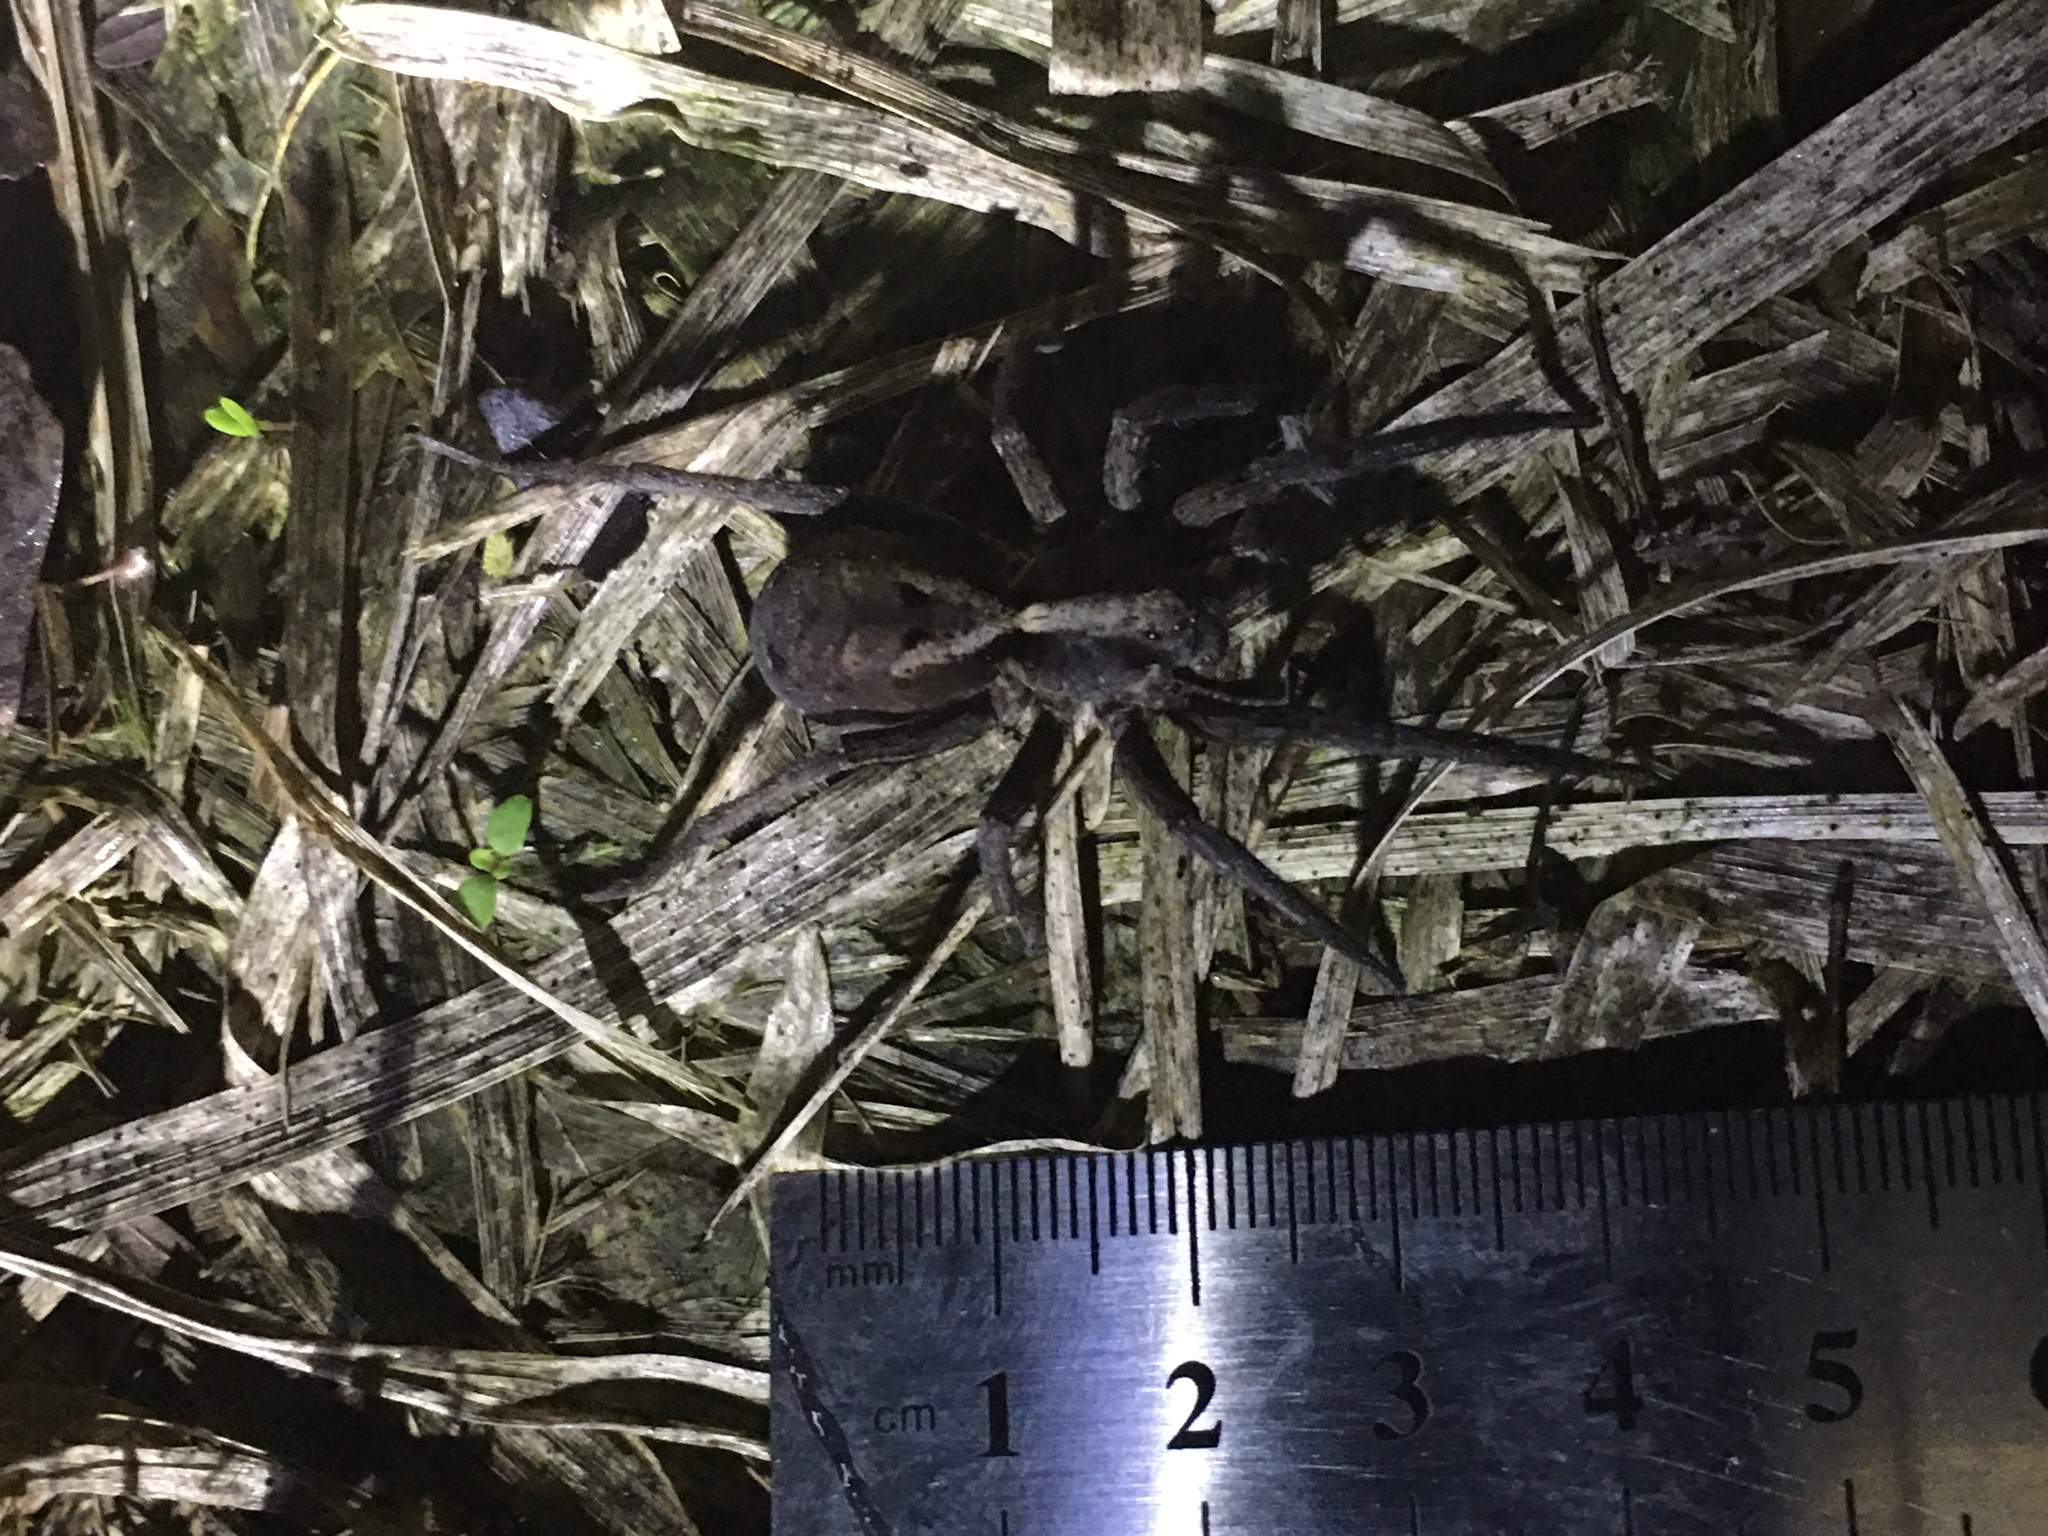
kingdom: Animalia
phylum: Arthropoda
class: Arachnida
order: Araneae
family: Lycosidae
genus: Hogna
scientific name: Hogna gumia
